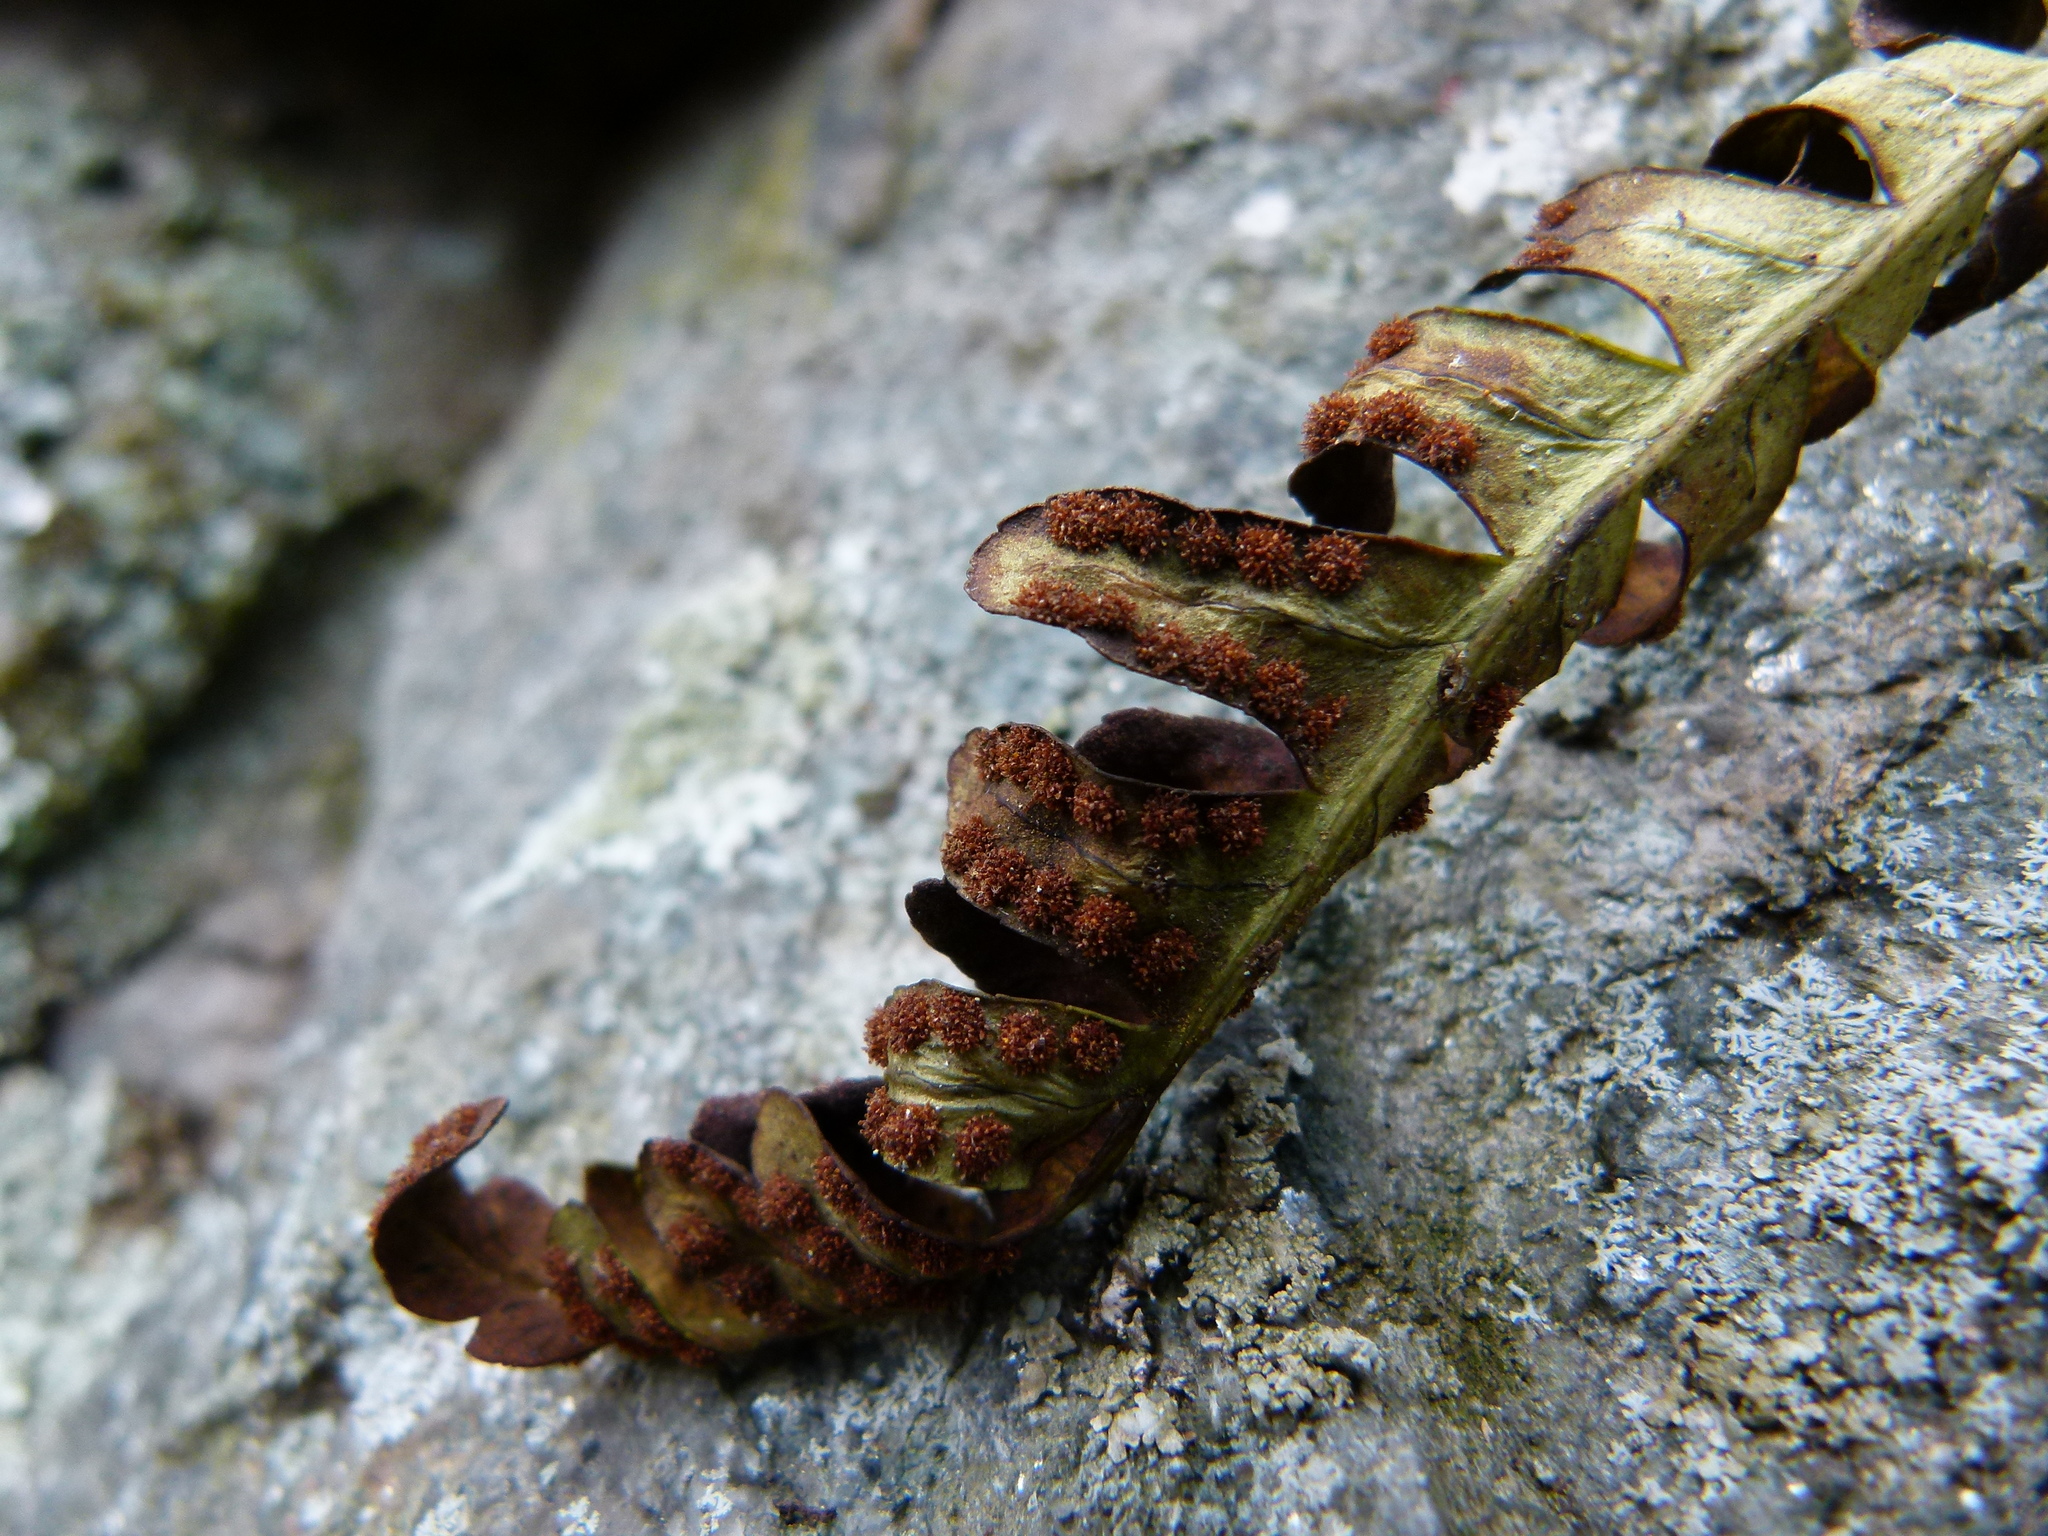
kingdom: Plantae
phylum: Tracheophyta
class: Polypodiopsida
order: Polypodiales
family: Polypodiaceae
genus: Polypodium
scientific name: Polypodium virginianum
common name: American wall fern
